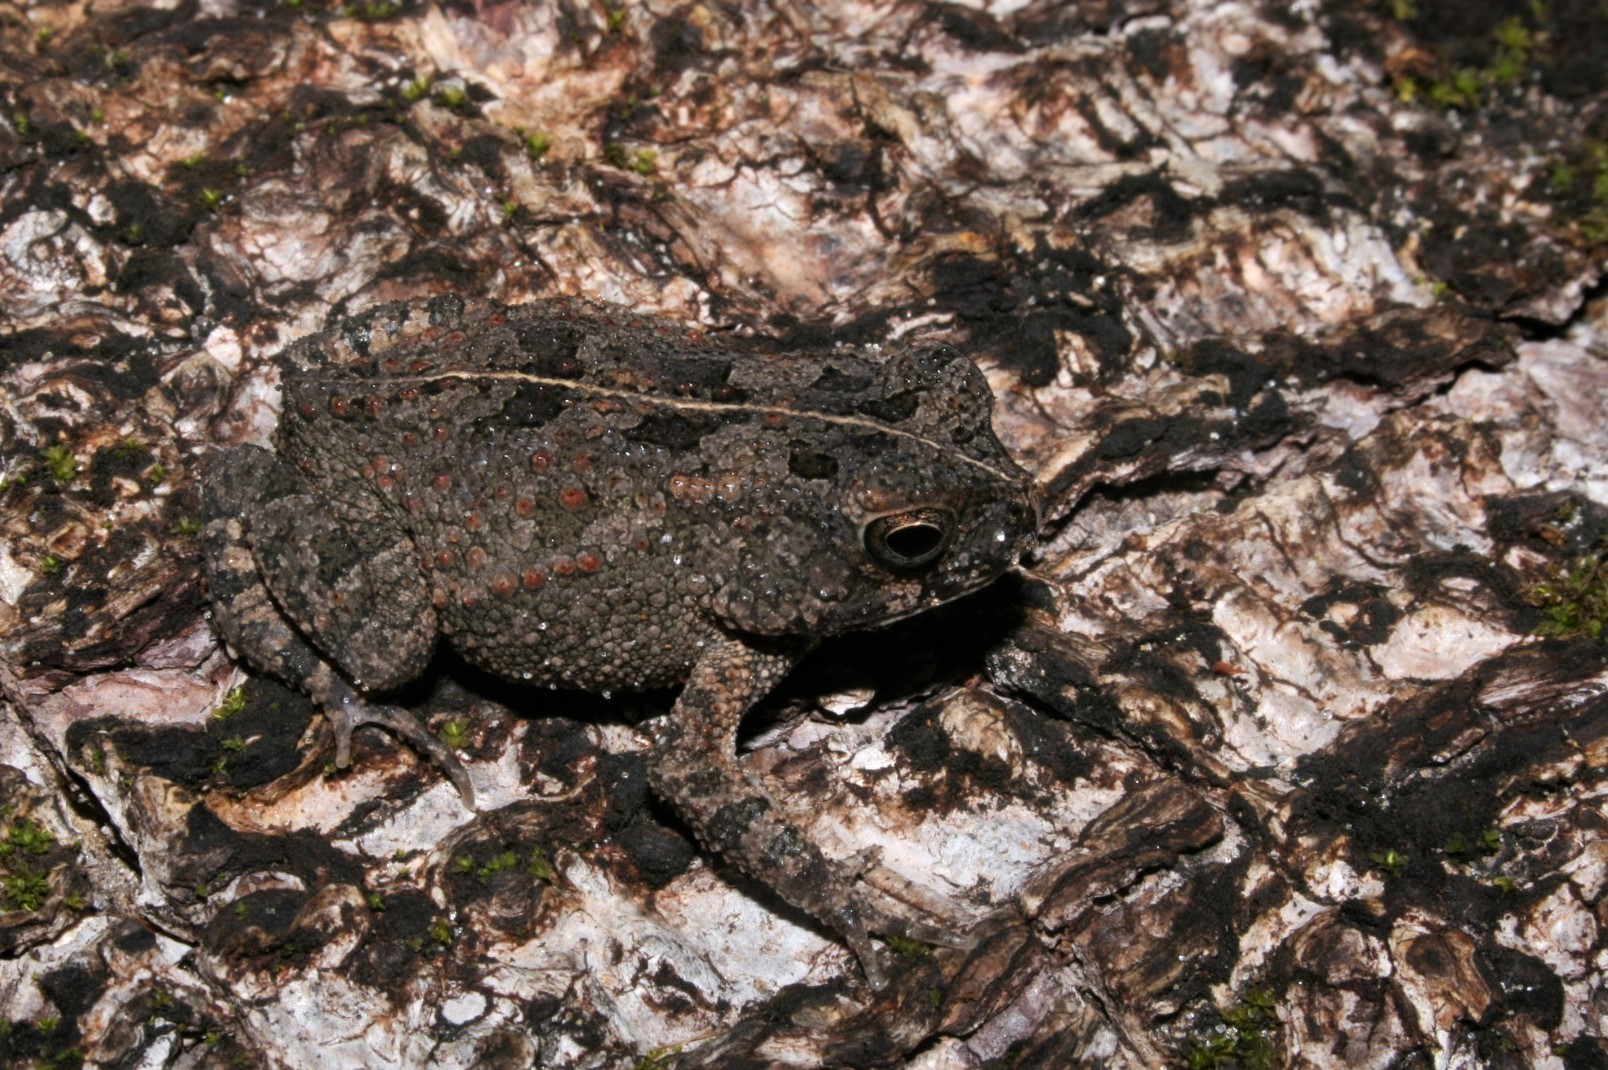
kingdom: Animalia
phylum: Chordata
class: Amphibia
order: Anura
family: Bufonidae
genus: Sclerophrys
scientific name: Sclerophrys maculata
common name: Hallowell's toad
